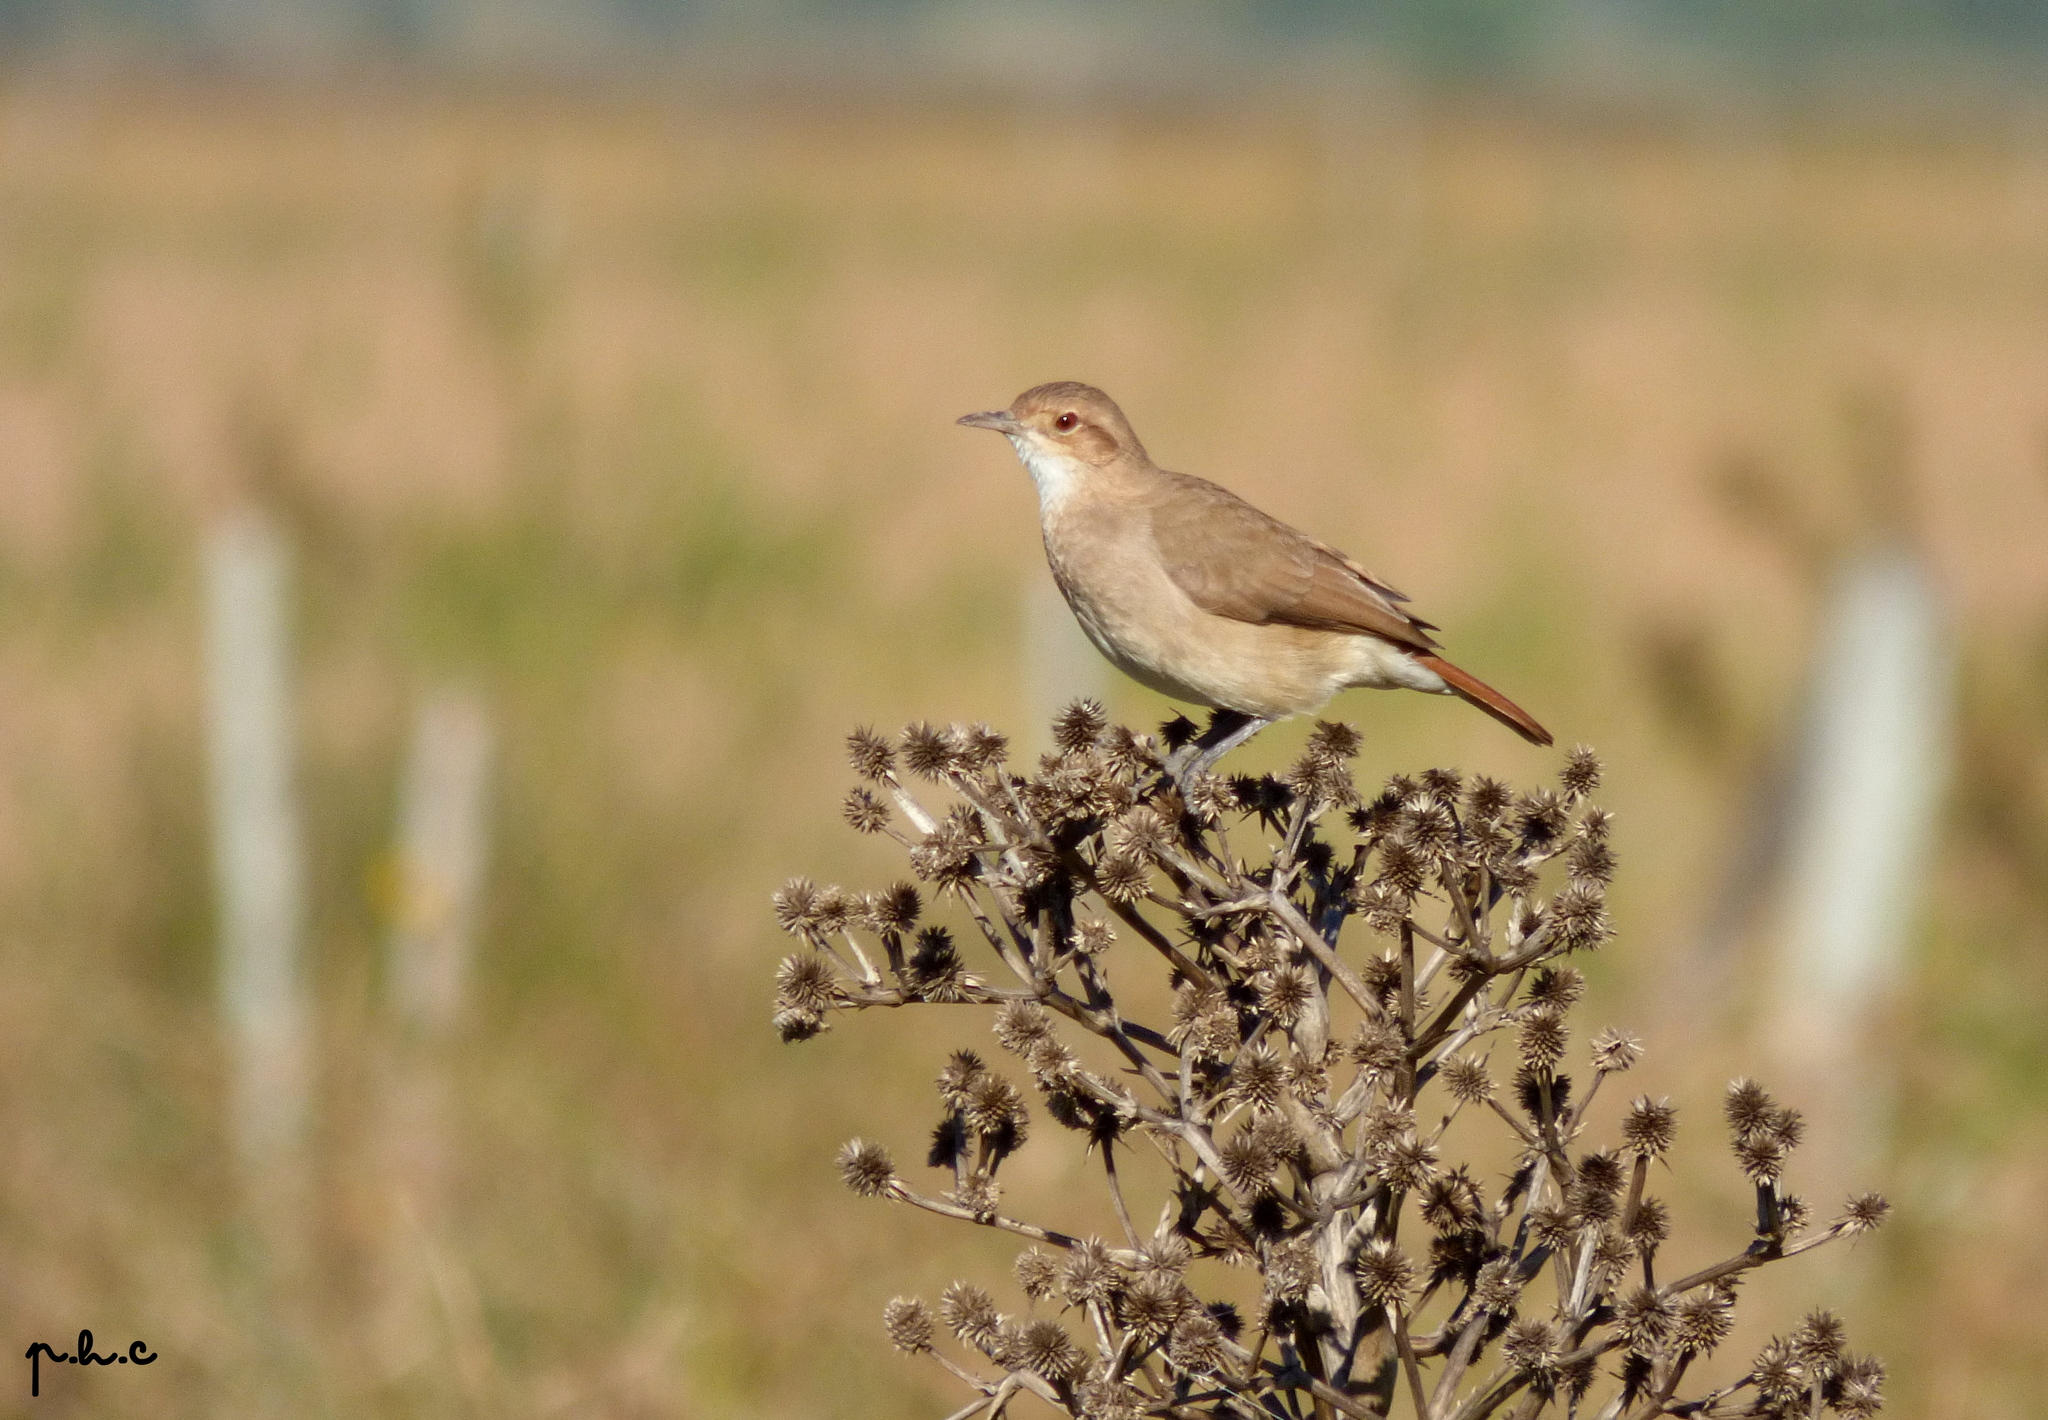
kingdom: Animalia
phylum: Chordata
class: Aves
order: Passeriformes
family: Furnariidae
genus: Furnarius
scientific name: Furnarius rufus
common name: Rufous hornero
